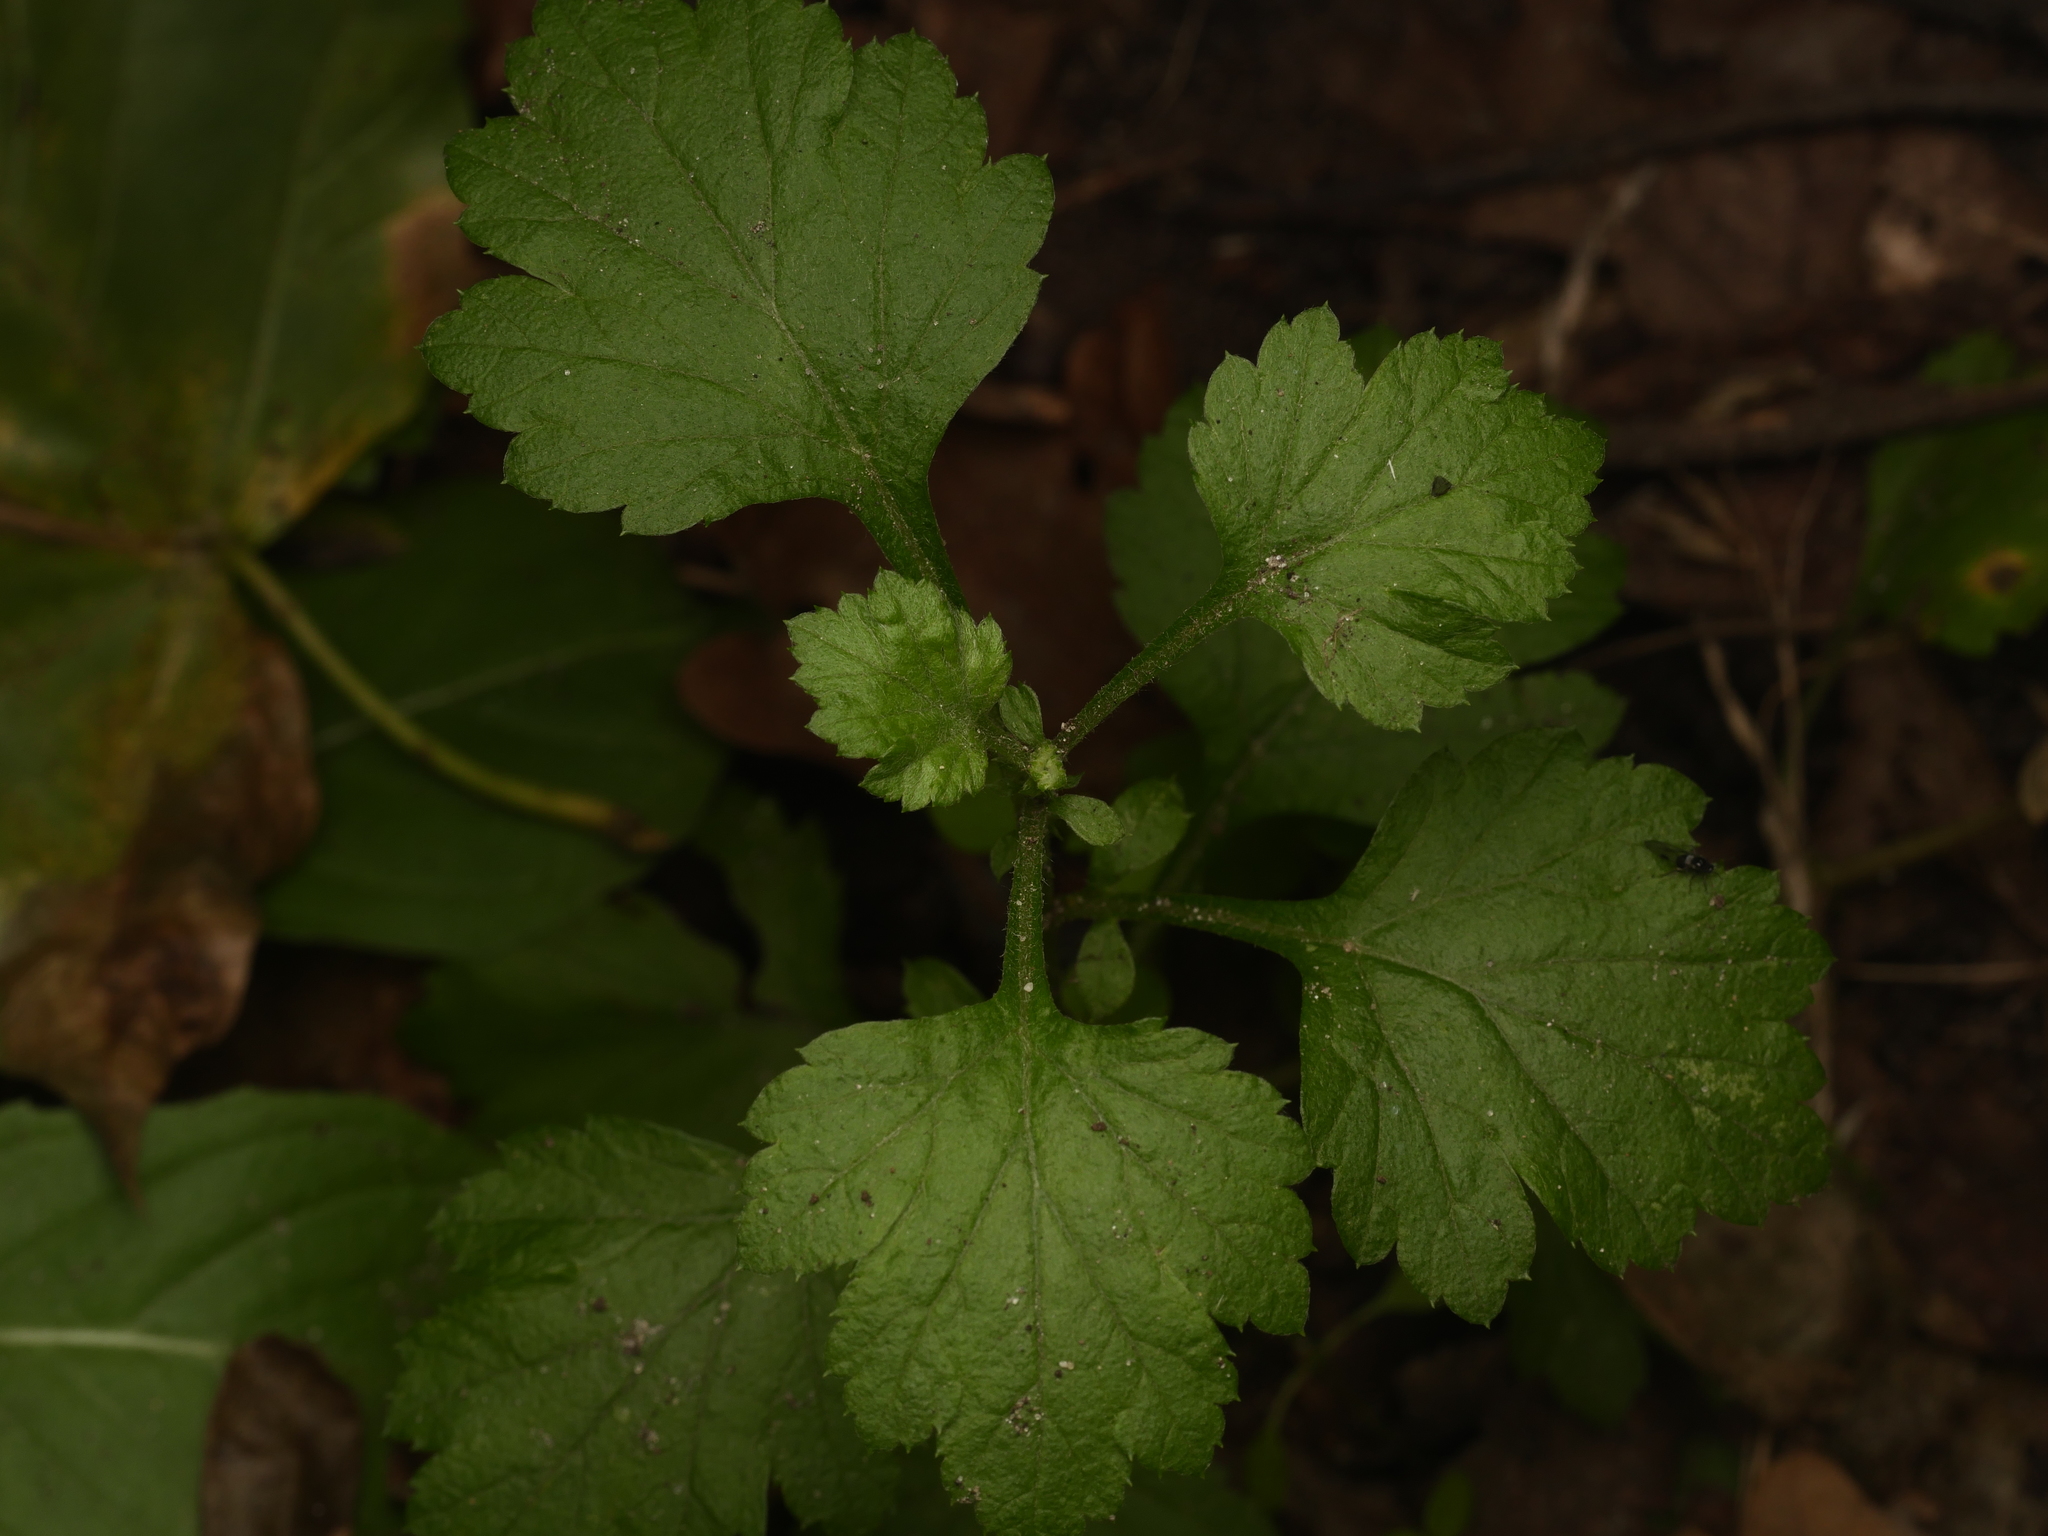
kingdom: Plantae
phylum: Tracheophyta
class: Magnoliopsida
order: Asterales
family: Asteraceae
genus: Artemisia
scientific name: Artemisia vulgaris
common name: Mugwort
